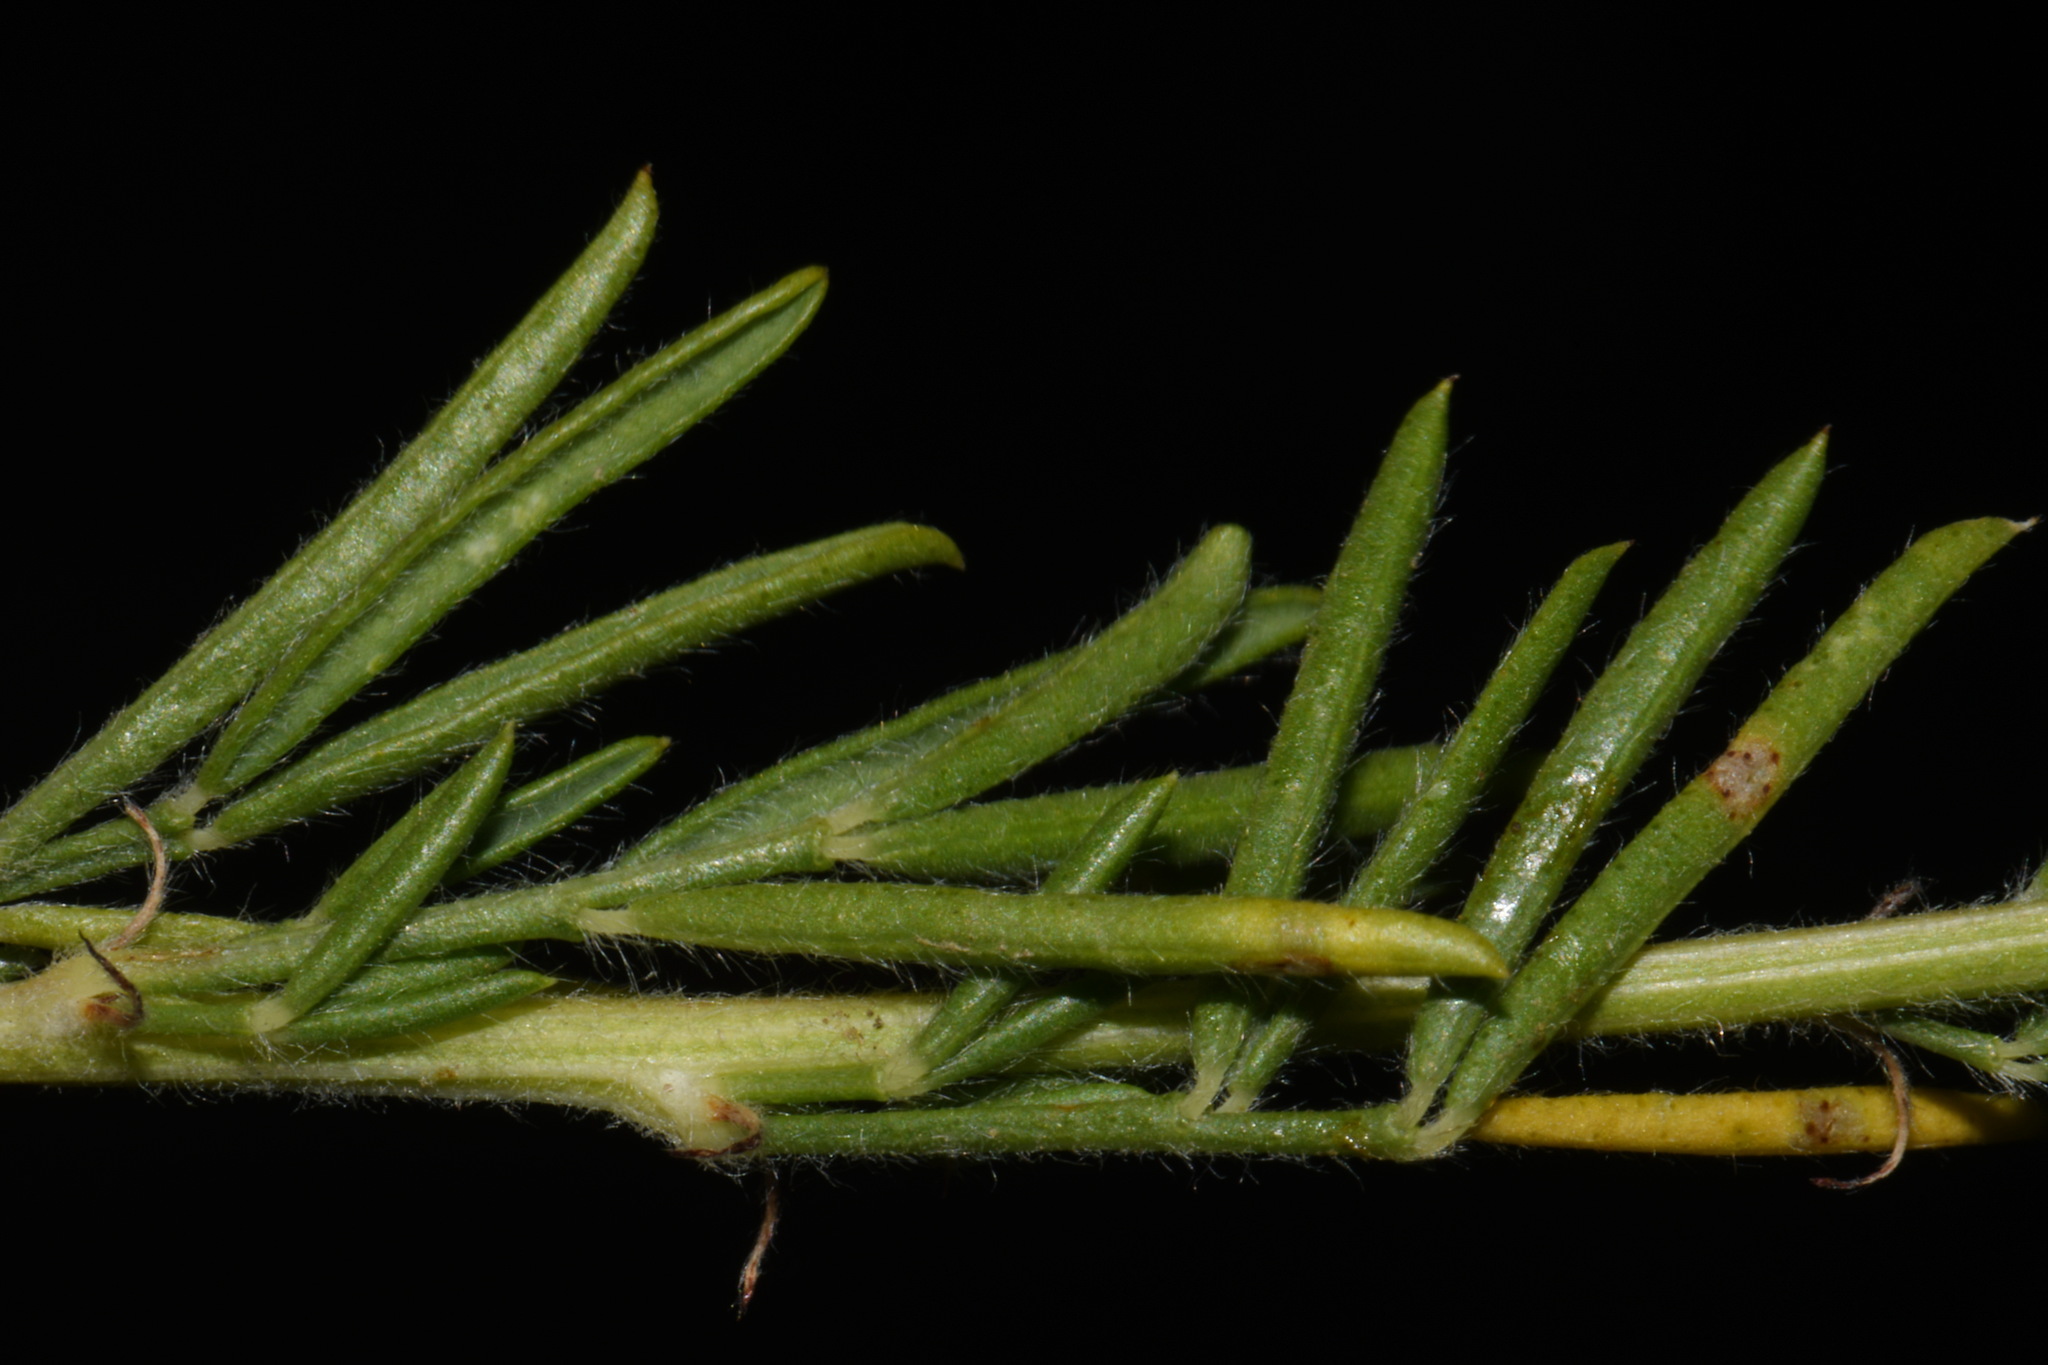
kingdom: Plantae
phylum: Tracheophyta
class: Magnoliopsida
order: Fabales
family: Fabaceae
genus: Dalea
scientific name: Dalea purpurea
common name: Purple prairie-clover
